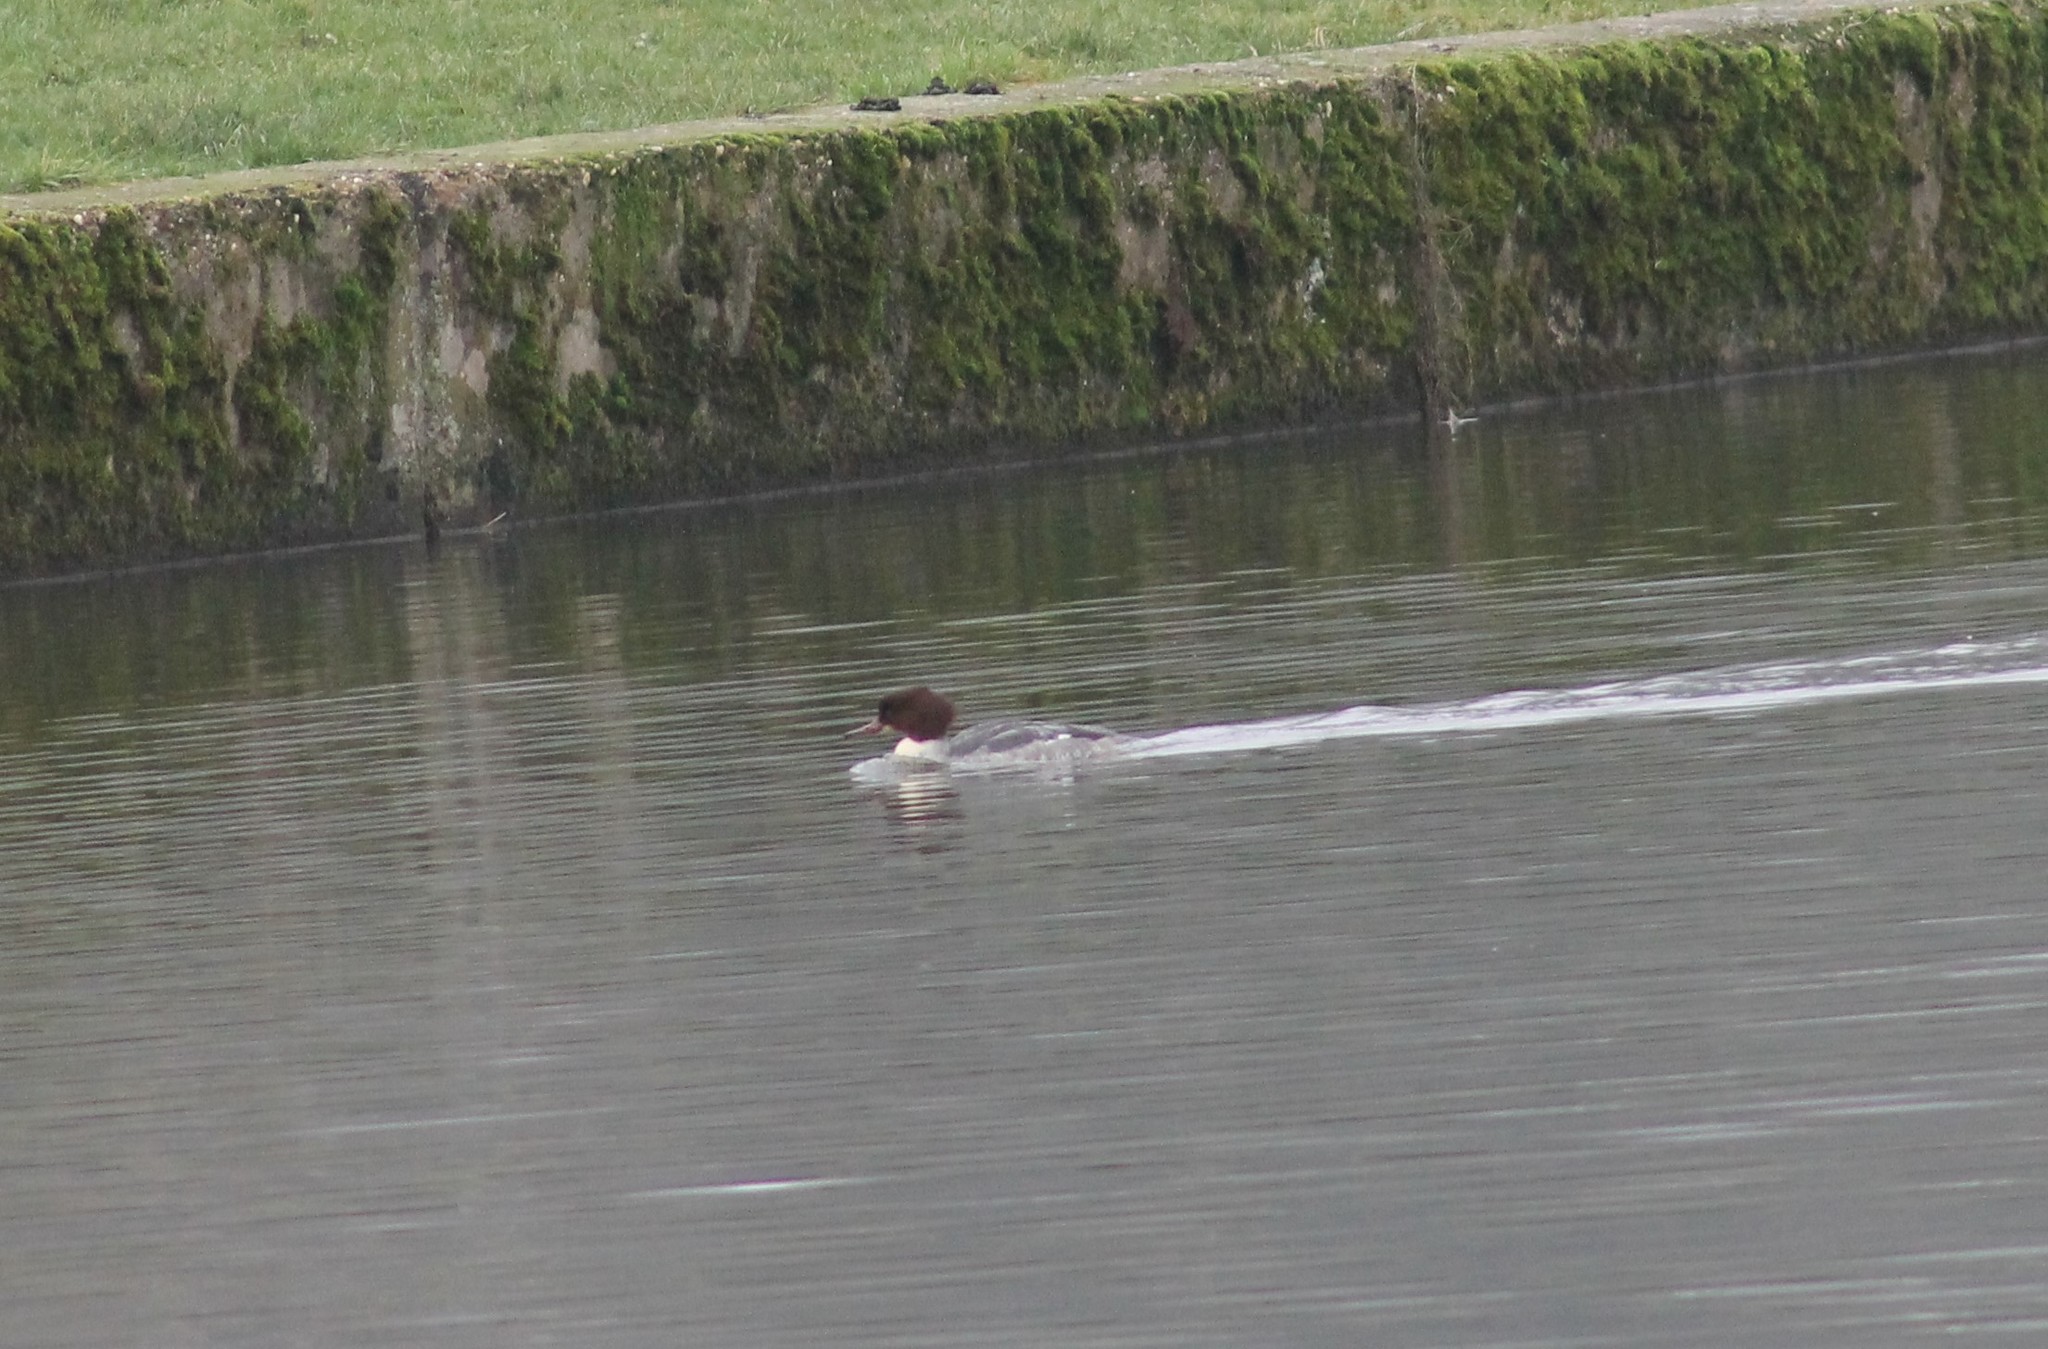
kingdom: Animalia
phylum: Chordata
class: Aves
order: Anseriformes
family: Anatidae
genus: Mergus
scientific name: Mergus merganser
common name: Common merganser
